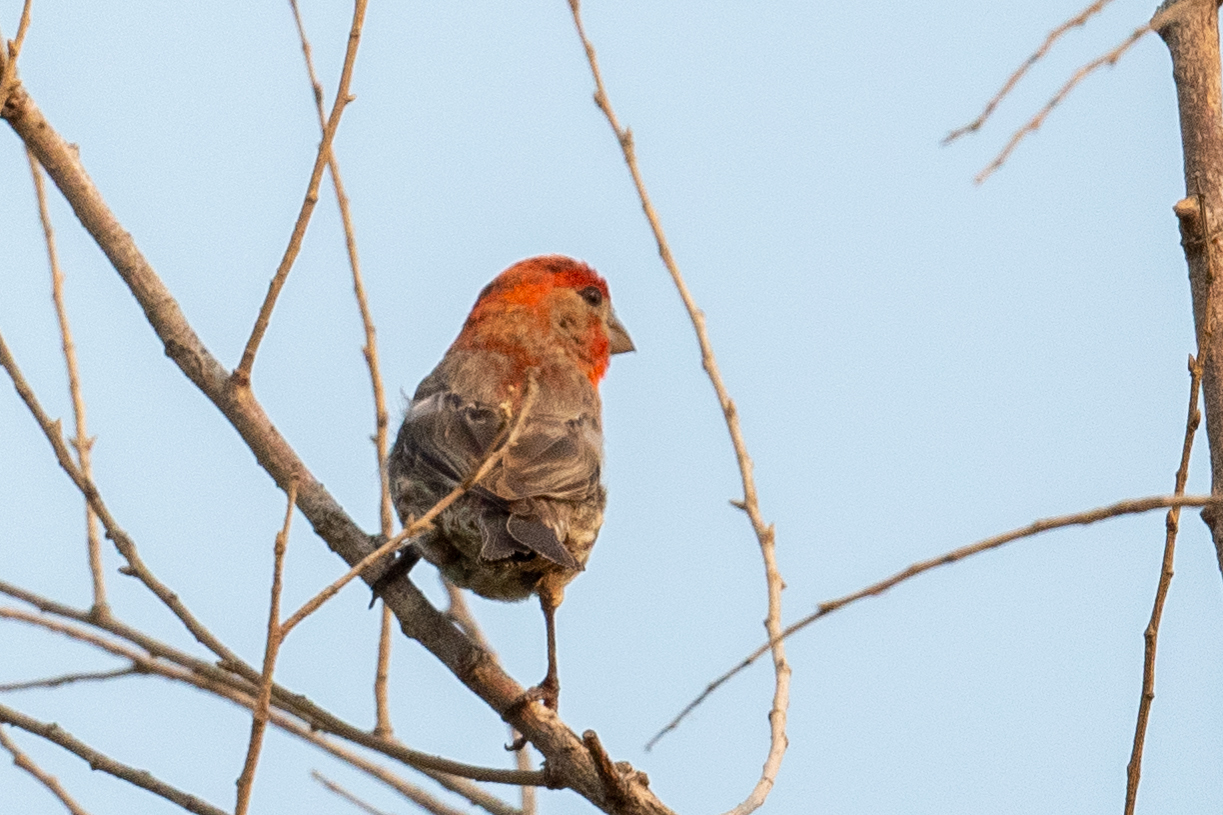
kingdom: Animalia
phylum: Chordata
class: Aves
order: Passeriformes
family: Fringillidae
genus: Haemorhous
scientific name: Haemorhous mexicanus
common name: House finch
